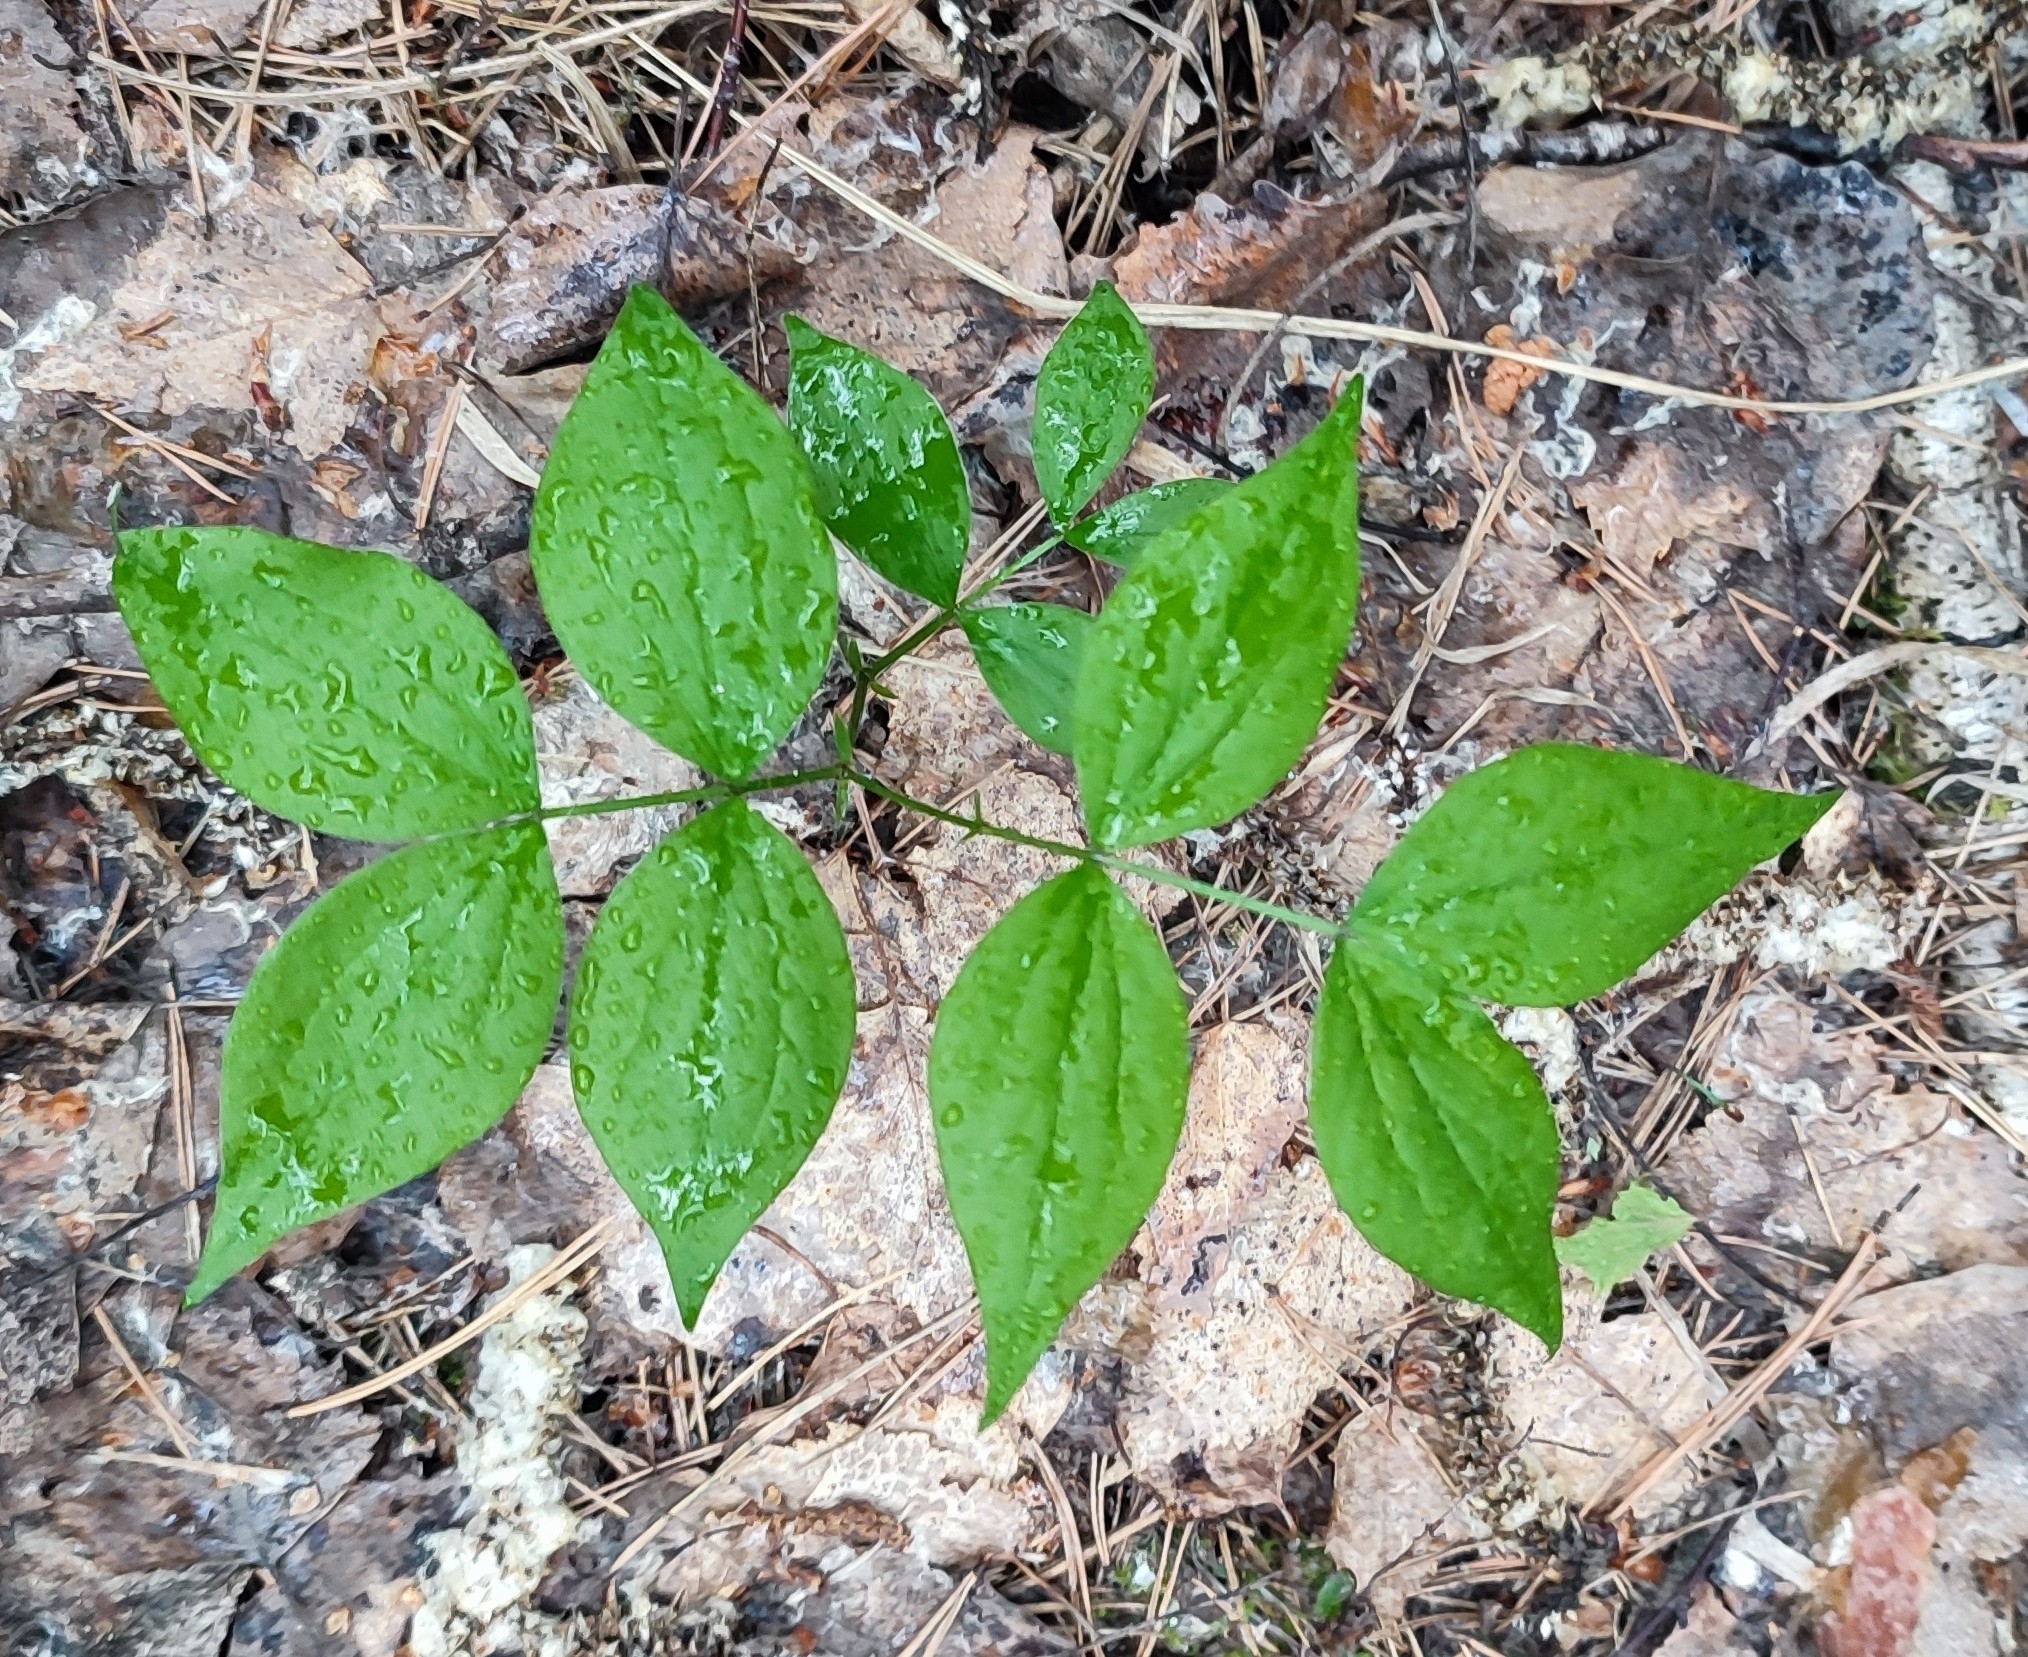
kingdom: Plantae
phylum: Tracheophyta
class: Magnoliopsida
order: Fabales
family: Fabaceae
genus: Lathyrus
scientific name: Lathyrus vernus
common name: Spring pea
